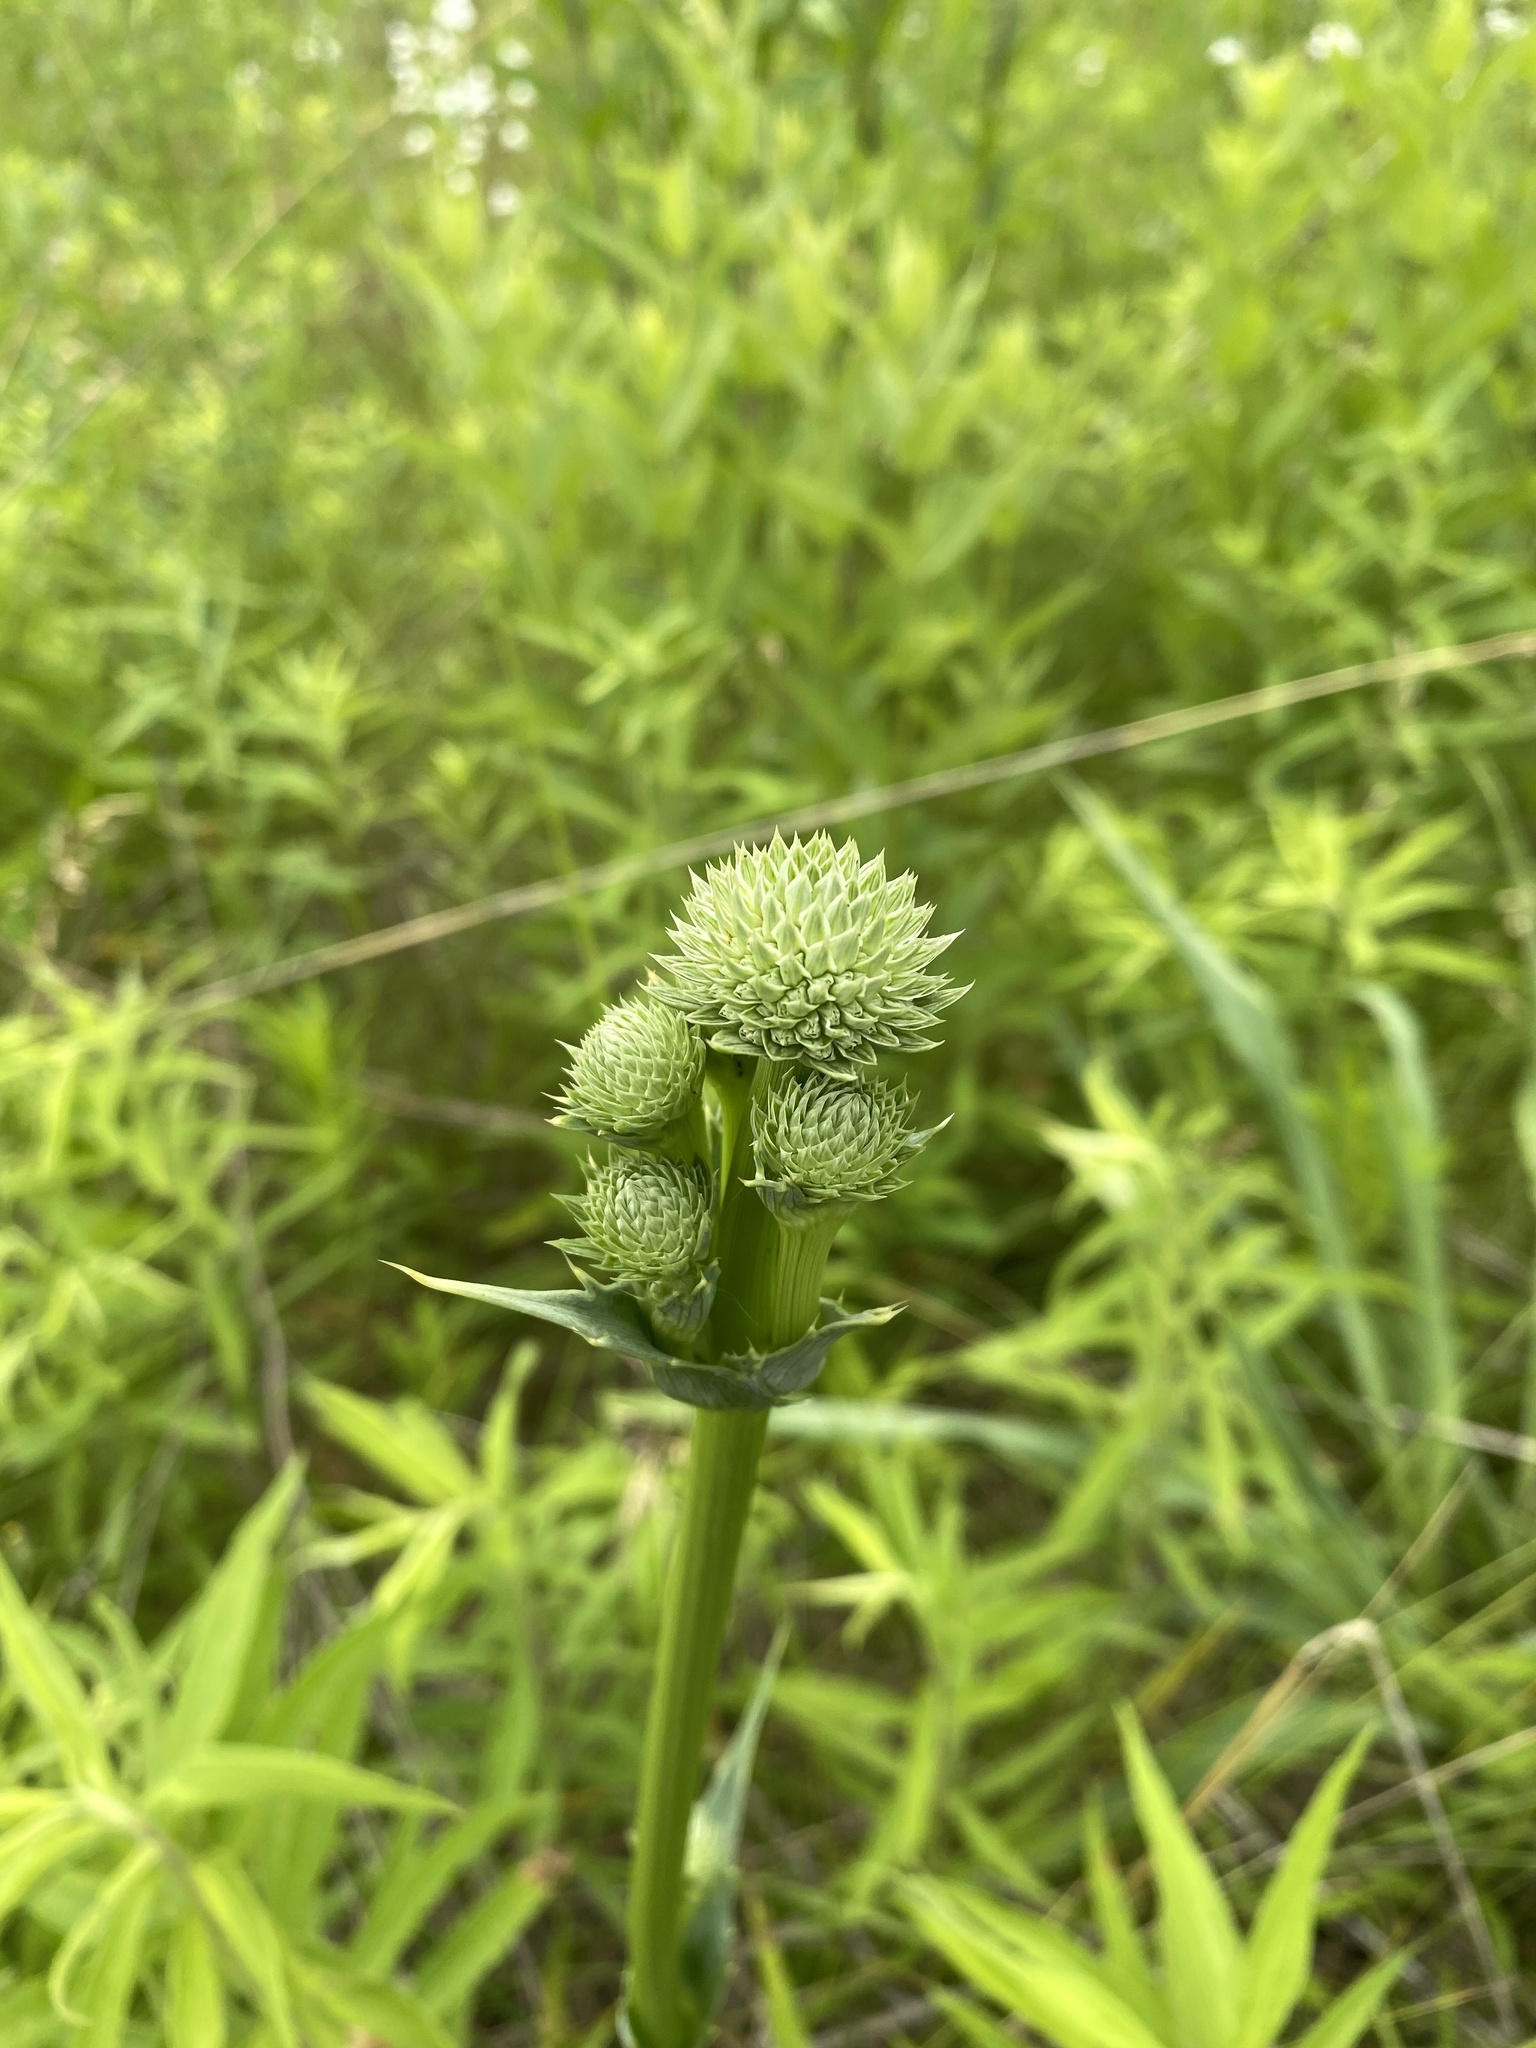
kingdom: Plantae
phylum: Tracheophyta
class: Magnoliopsida
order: Apiales
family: Apiaceae
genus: Eryngium
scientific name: Eryngium yuccifolium
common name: Button eryngo
